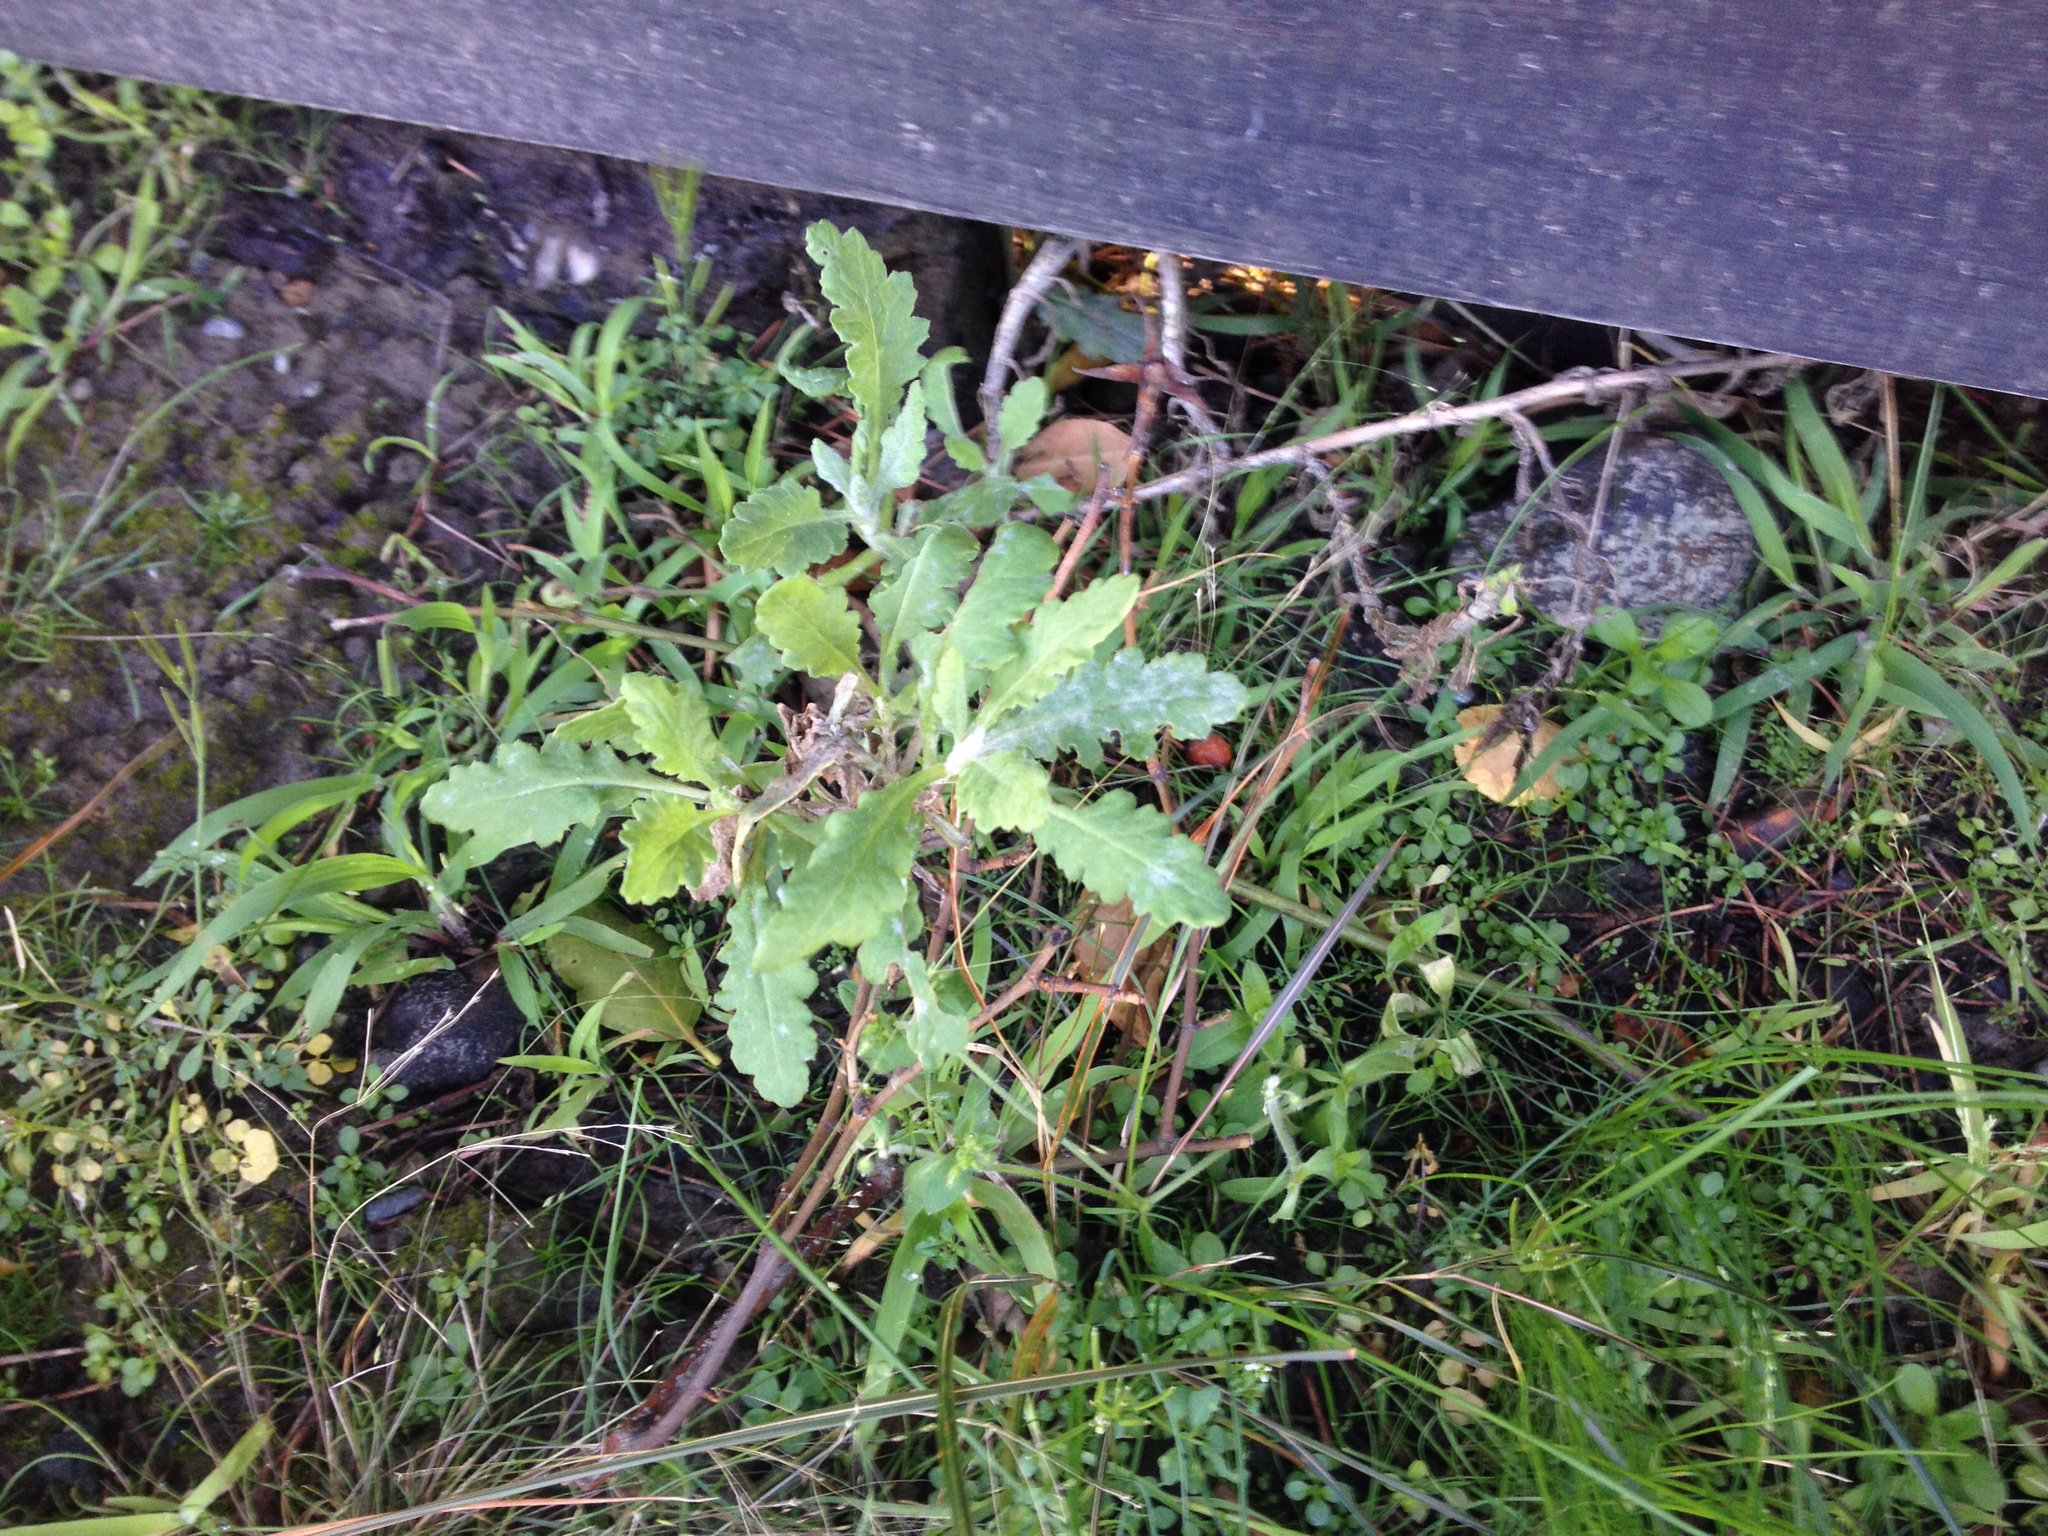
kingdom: Plantae
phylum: Tracheophyta
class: Magnoliopsida
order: Asterales
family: Asteraceae
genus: Senecio
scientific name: Senecio glomeratus
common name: Cutleaf burnweed
